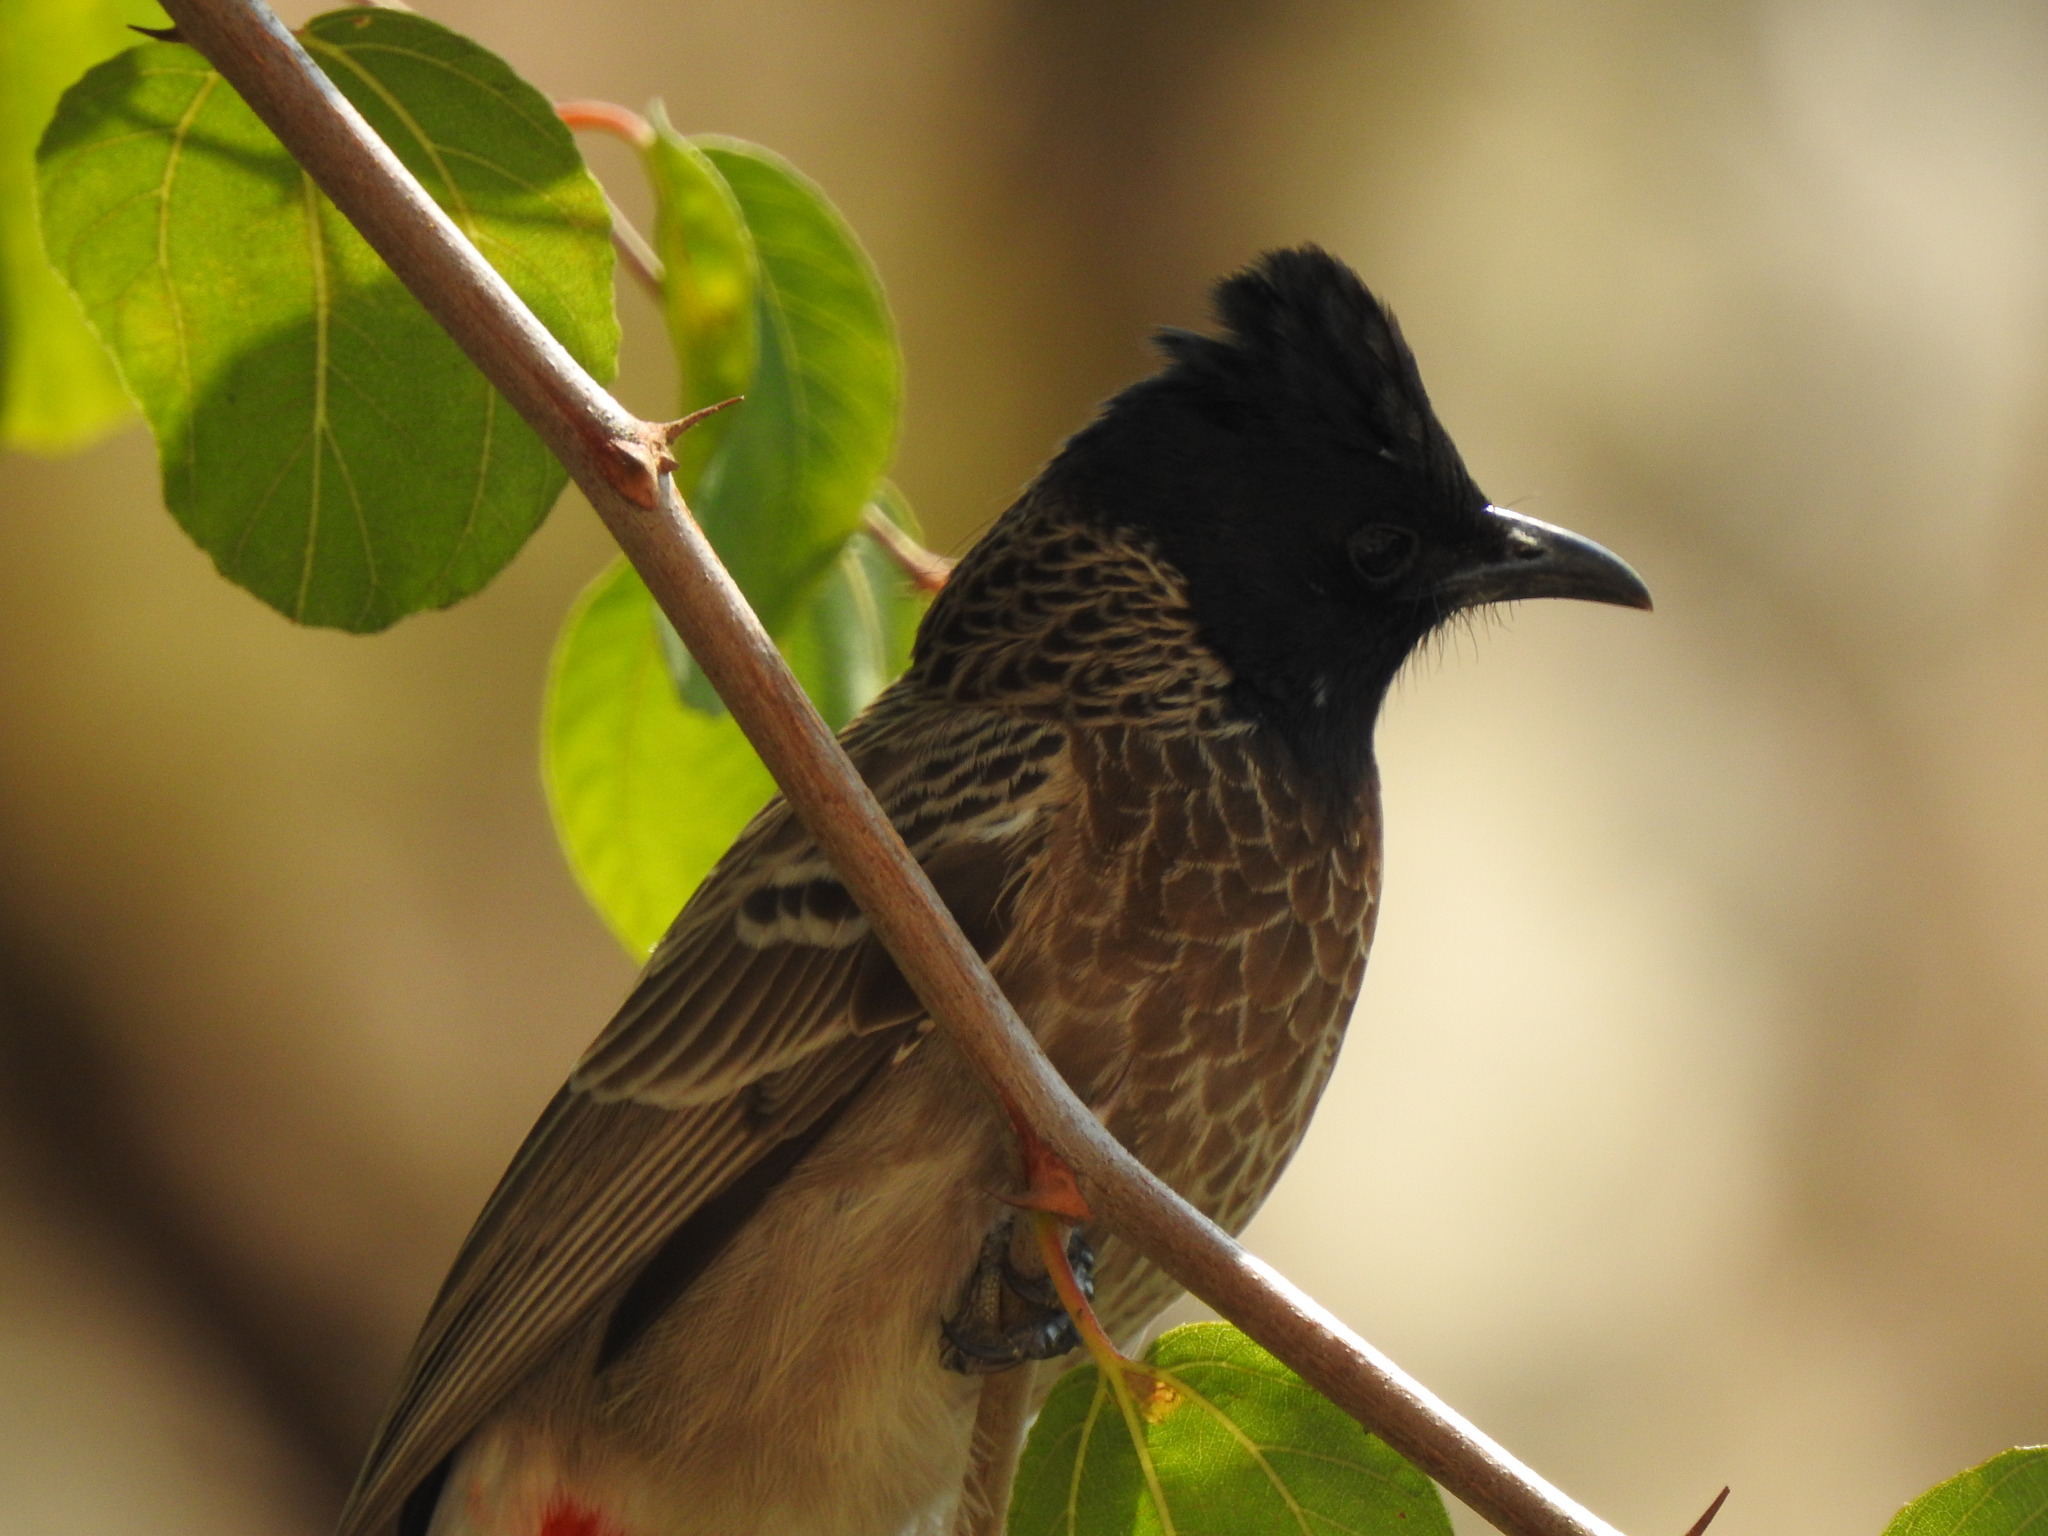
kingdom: Animalia
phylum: Chordata
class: Aves
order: Passeriformes
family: Pycnonotidae
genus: Pycnonotus
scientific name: Pycnonotus cafer
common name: Red-vented bulbul
